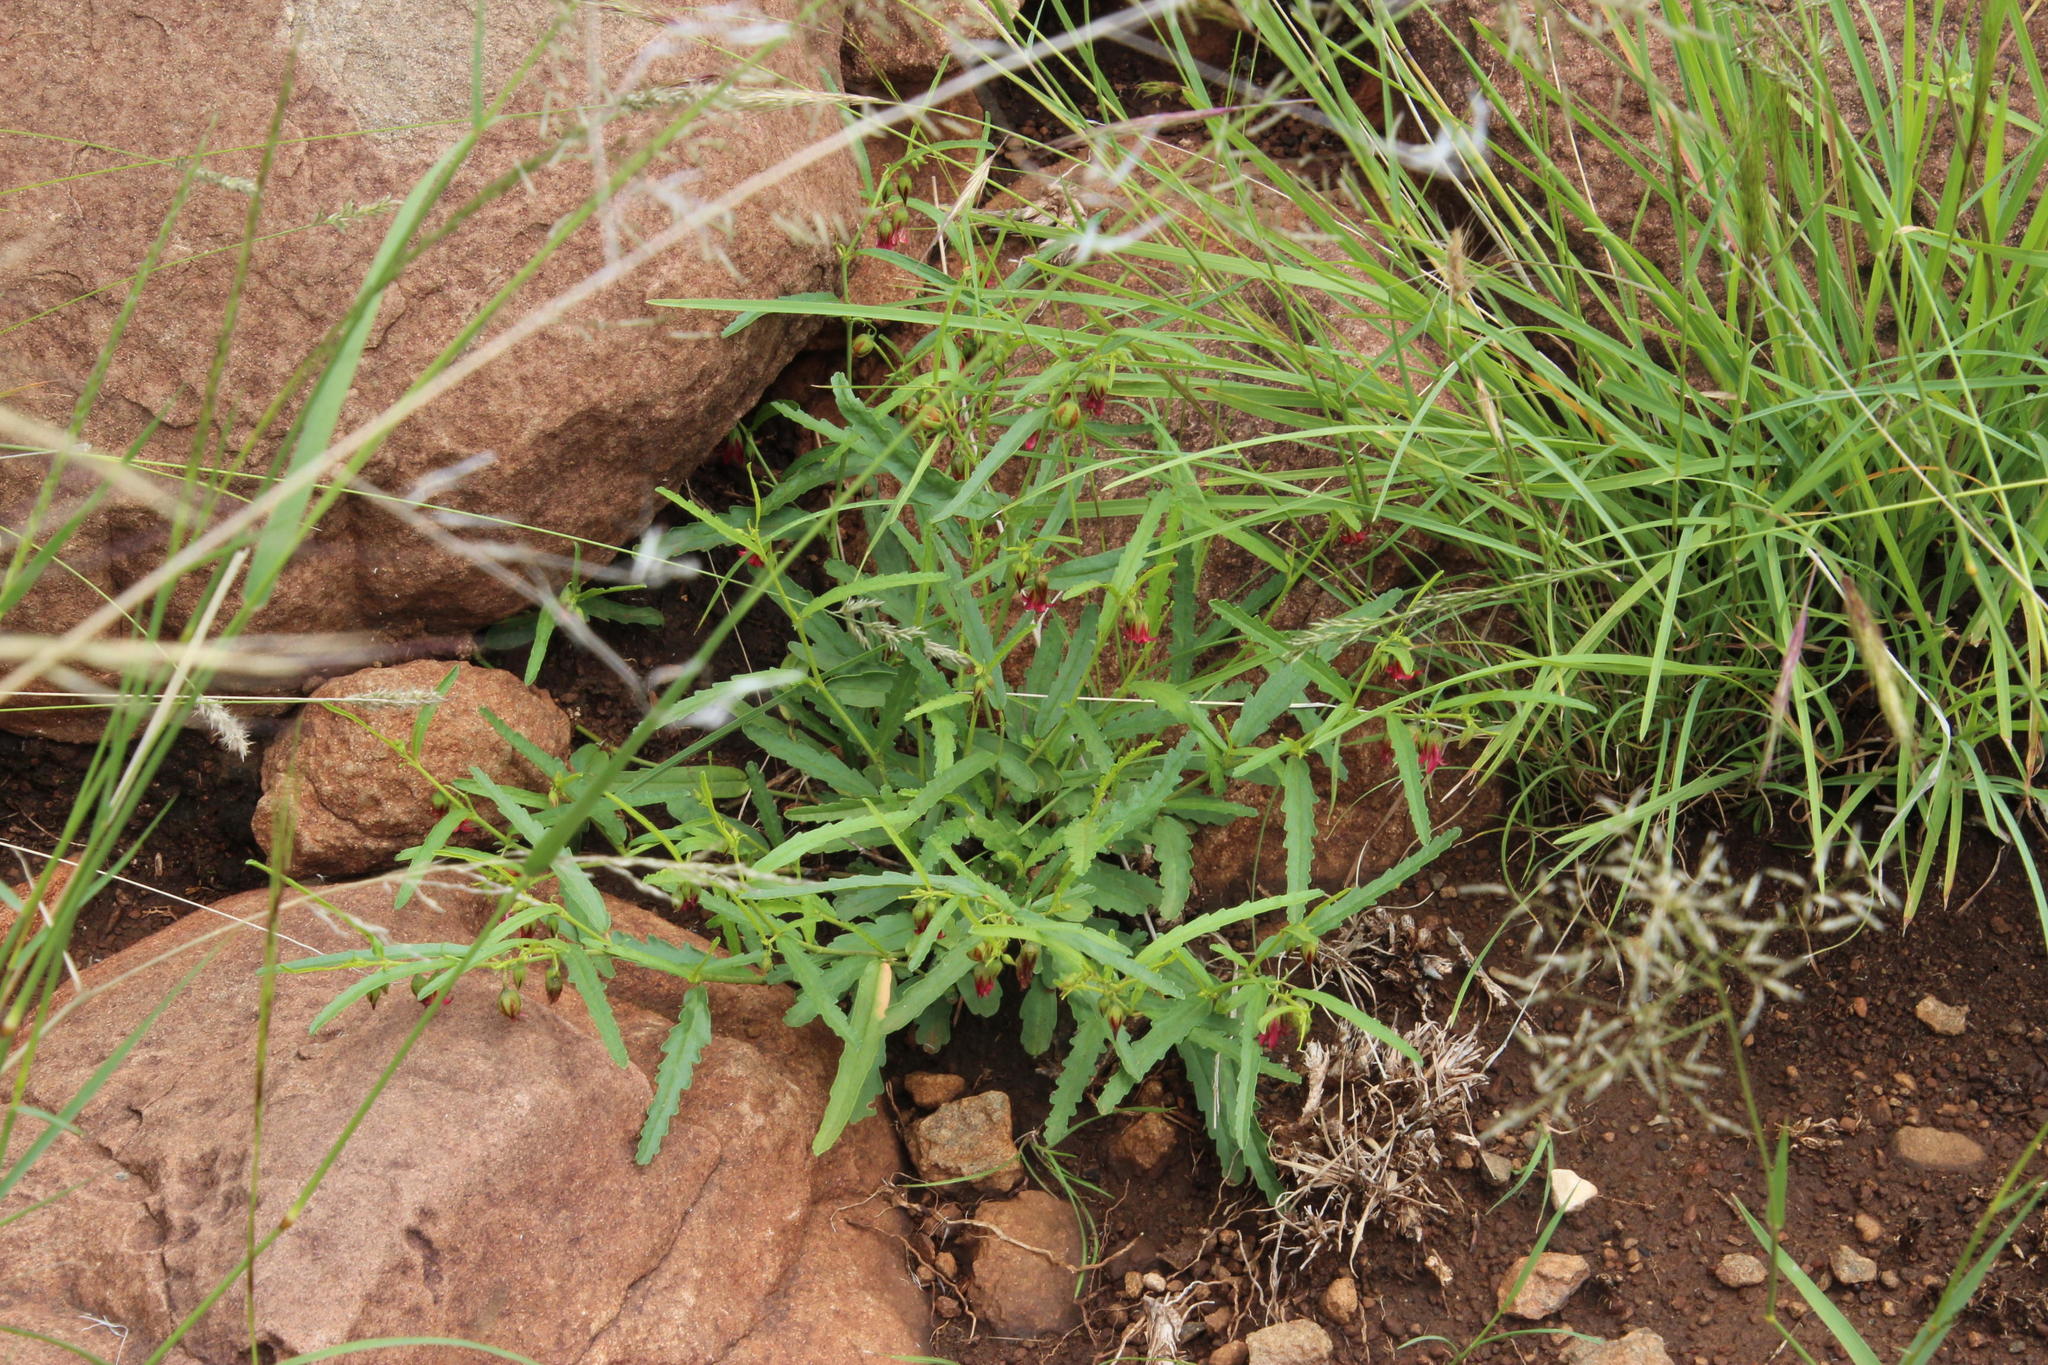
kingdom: Plantae
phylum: Tracheophyta
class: Magnoliopsida
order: Malvales
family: Malvaceae
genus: Hermannia
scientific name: Hermannia coccocarpa
